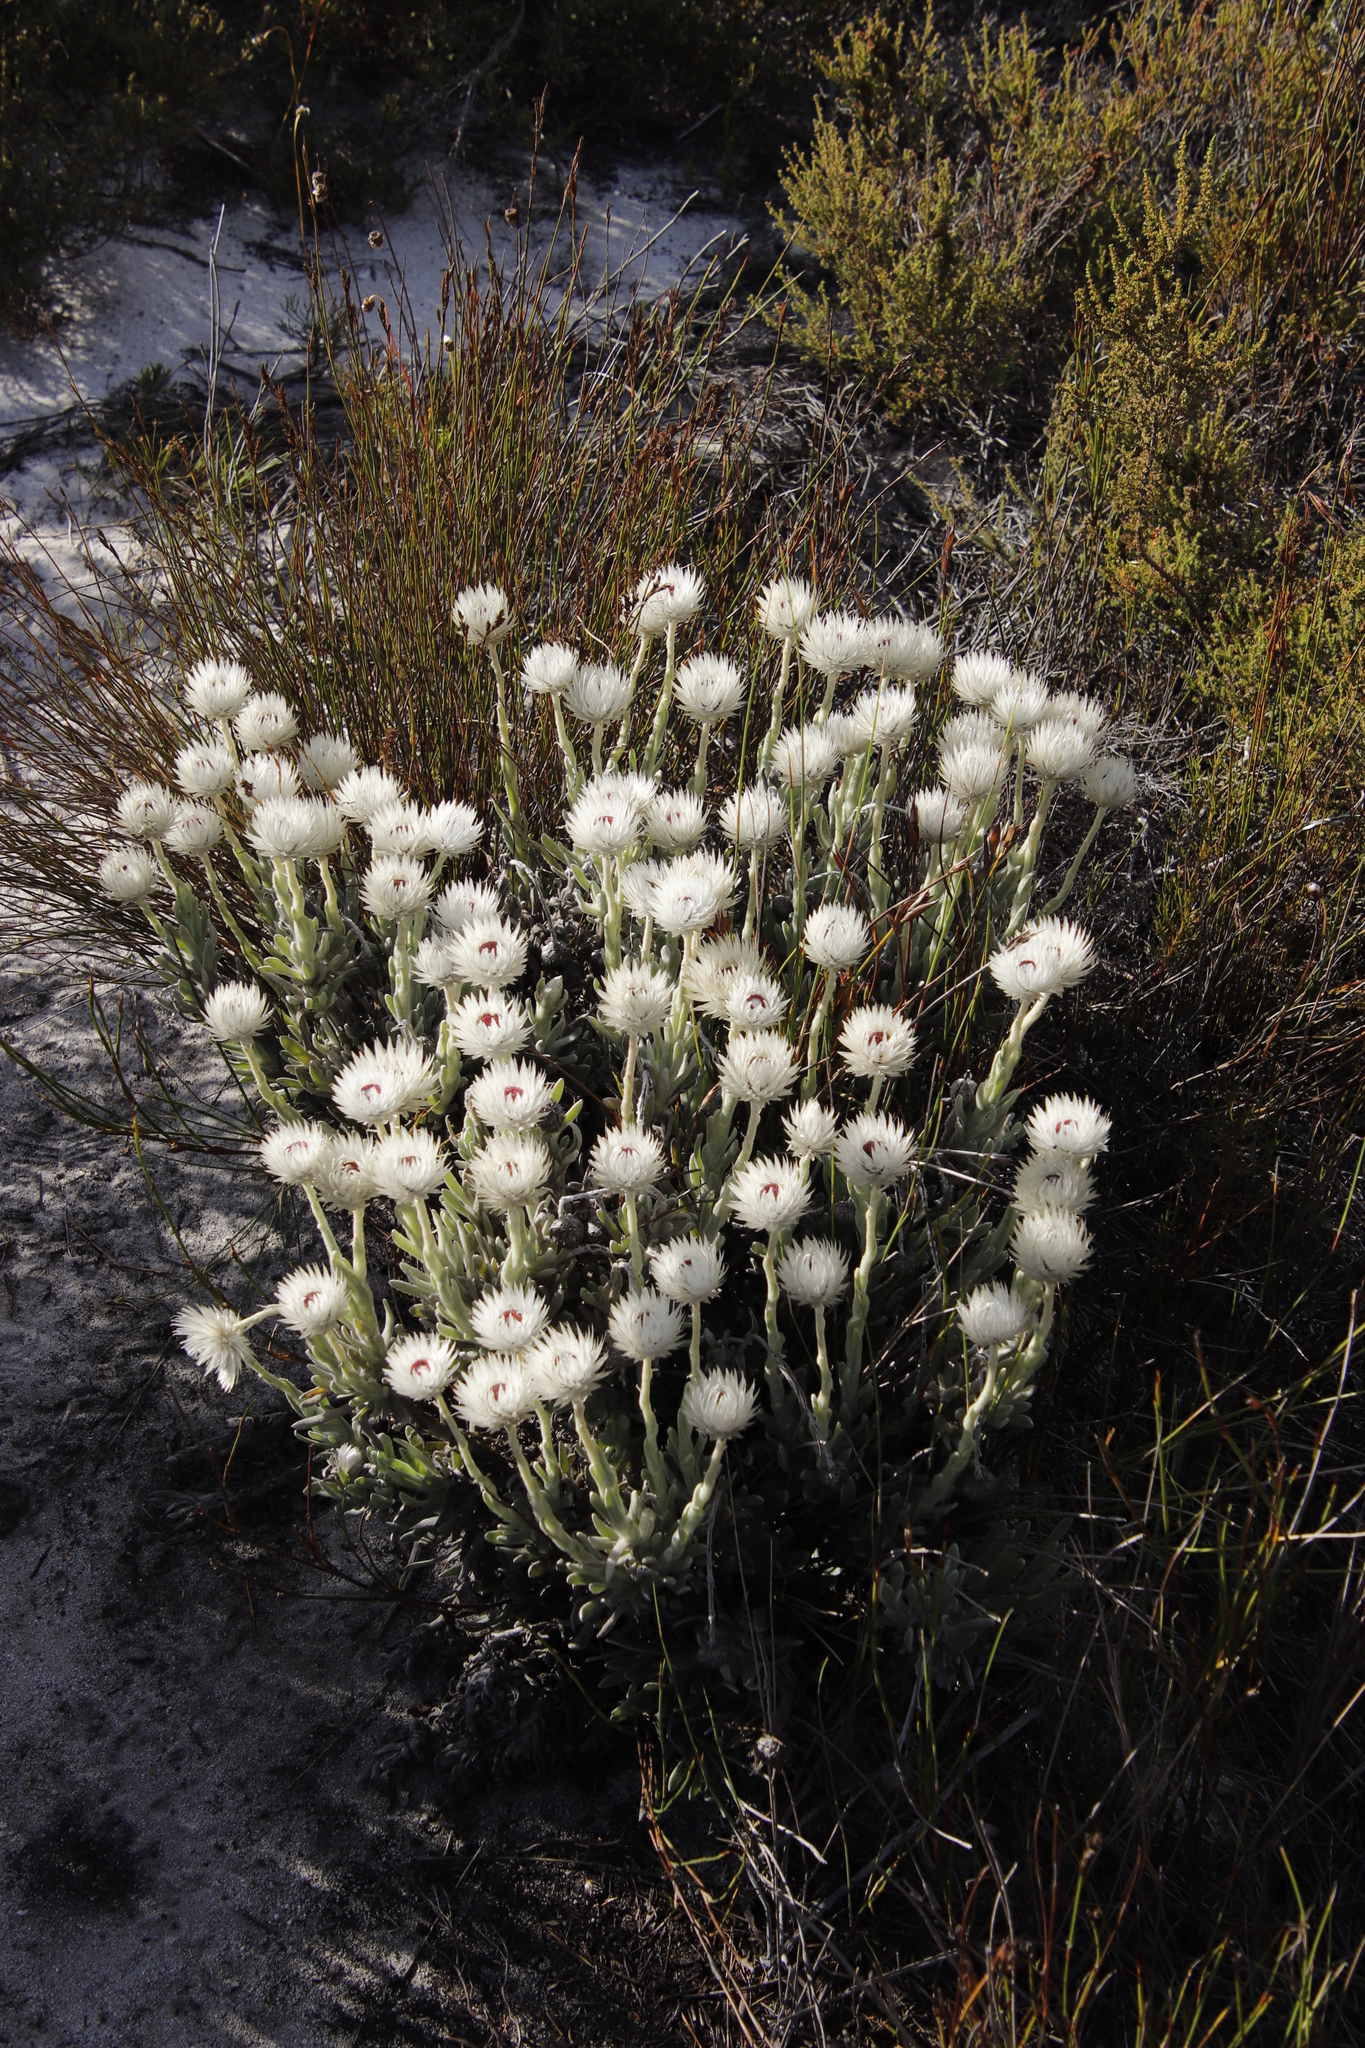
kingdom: Plantae
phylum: Tracheophyta
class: Magnoliopsida
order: Asterales
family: Asteraceae
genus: Syncarpha
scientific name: Syncarpha vestita
